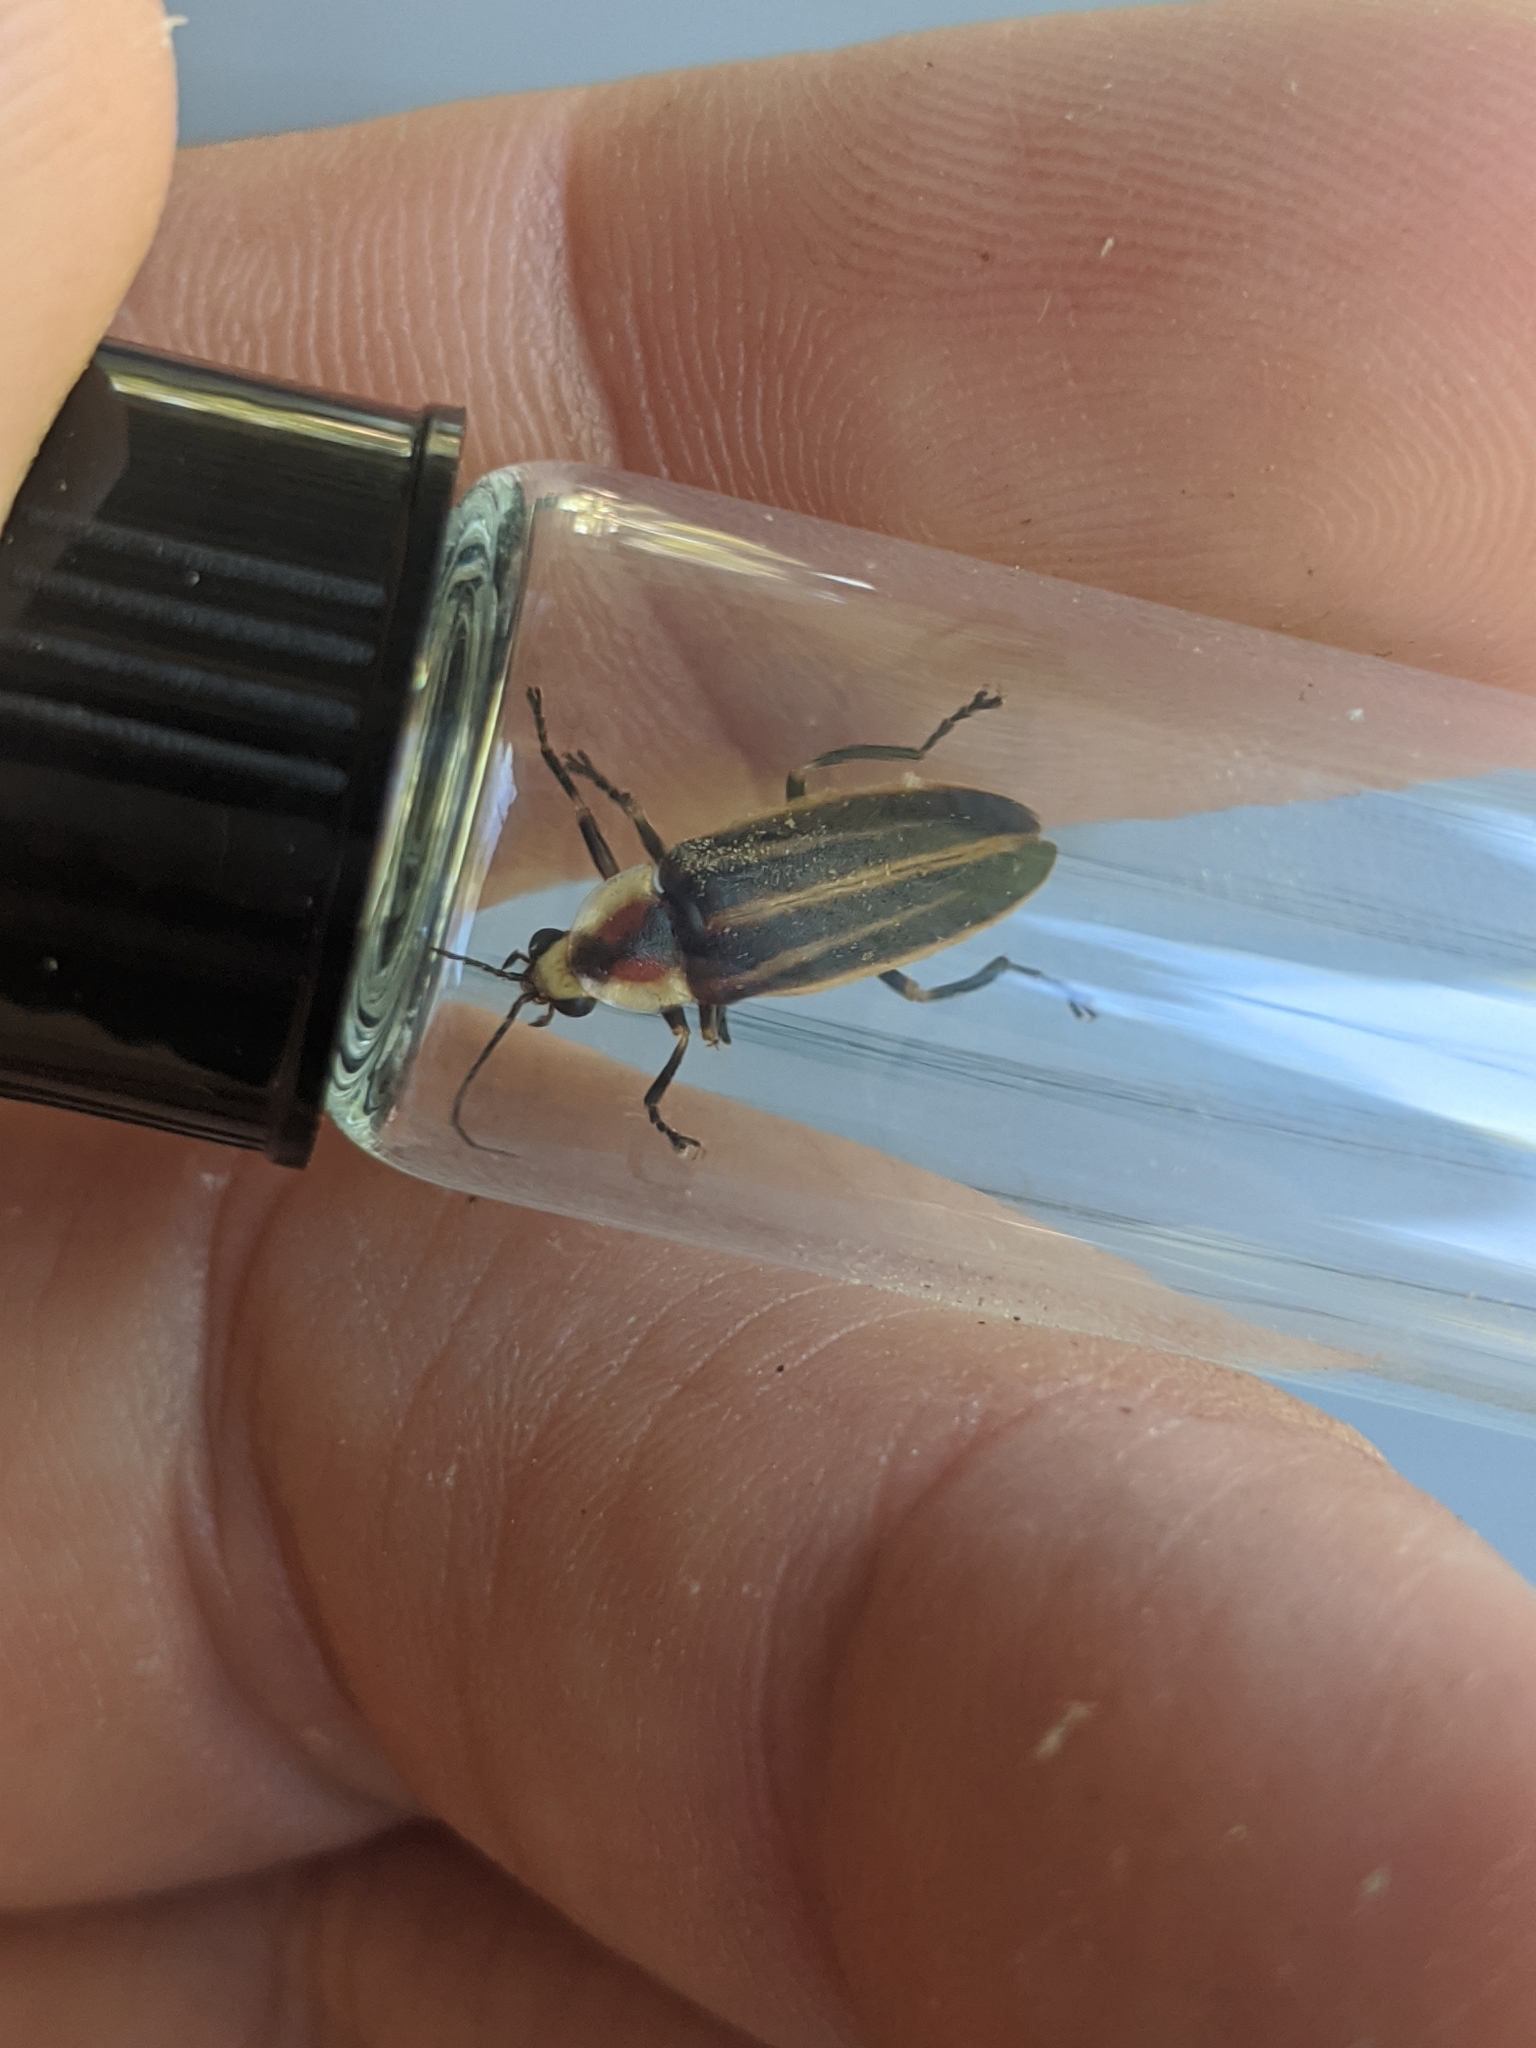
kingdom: Animalia
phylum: Arthropoda
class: Insecta
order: Coleoptera
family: Lampyridae
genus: Photuris
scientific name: Photuris
